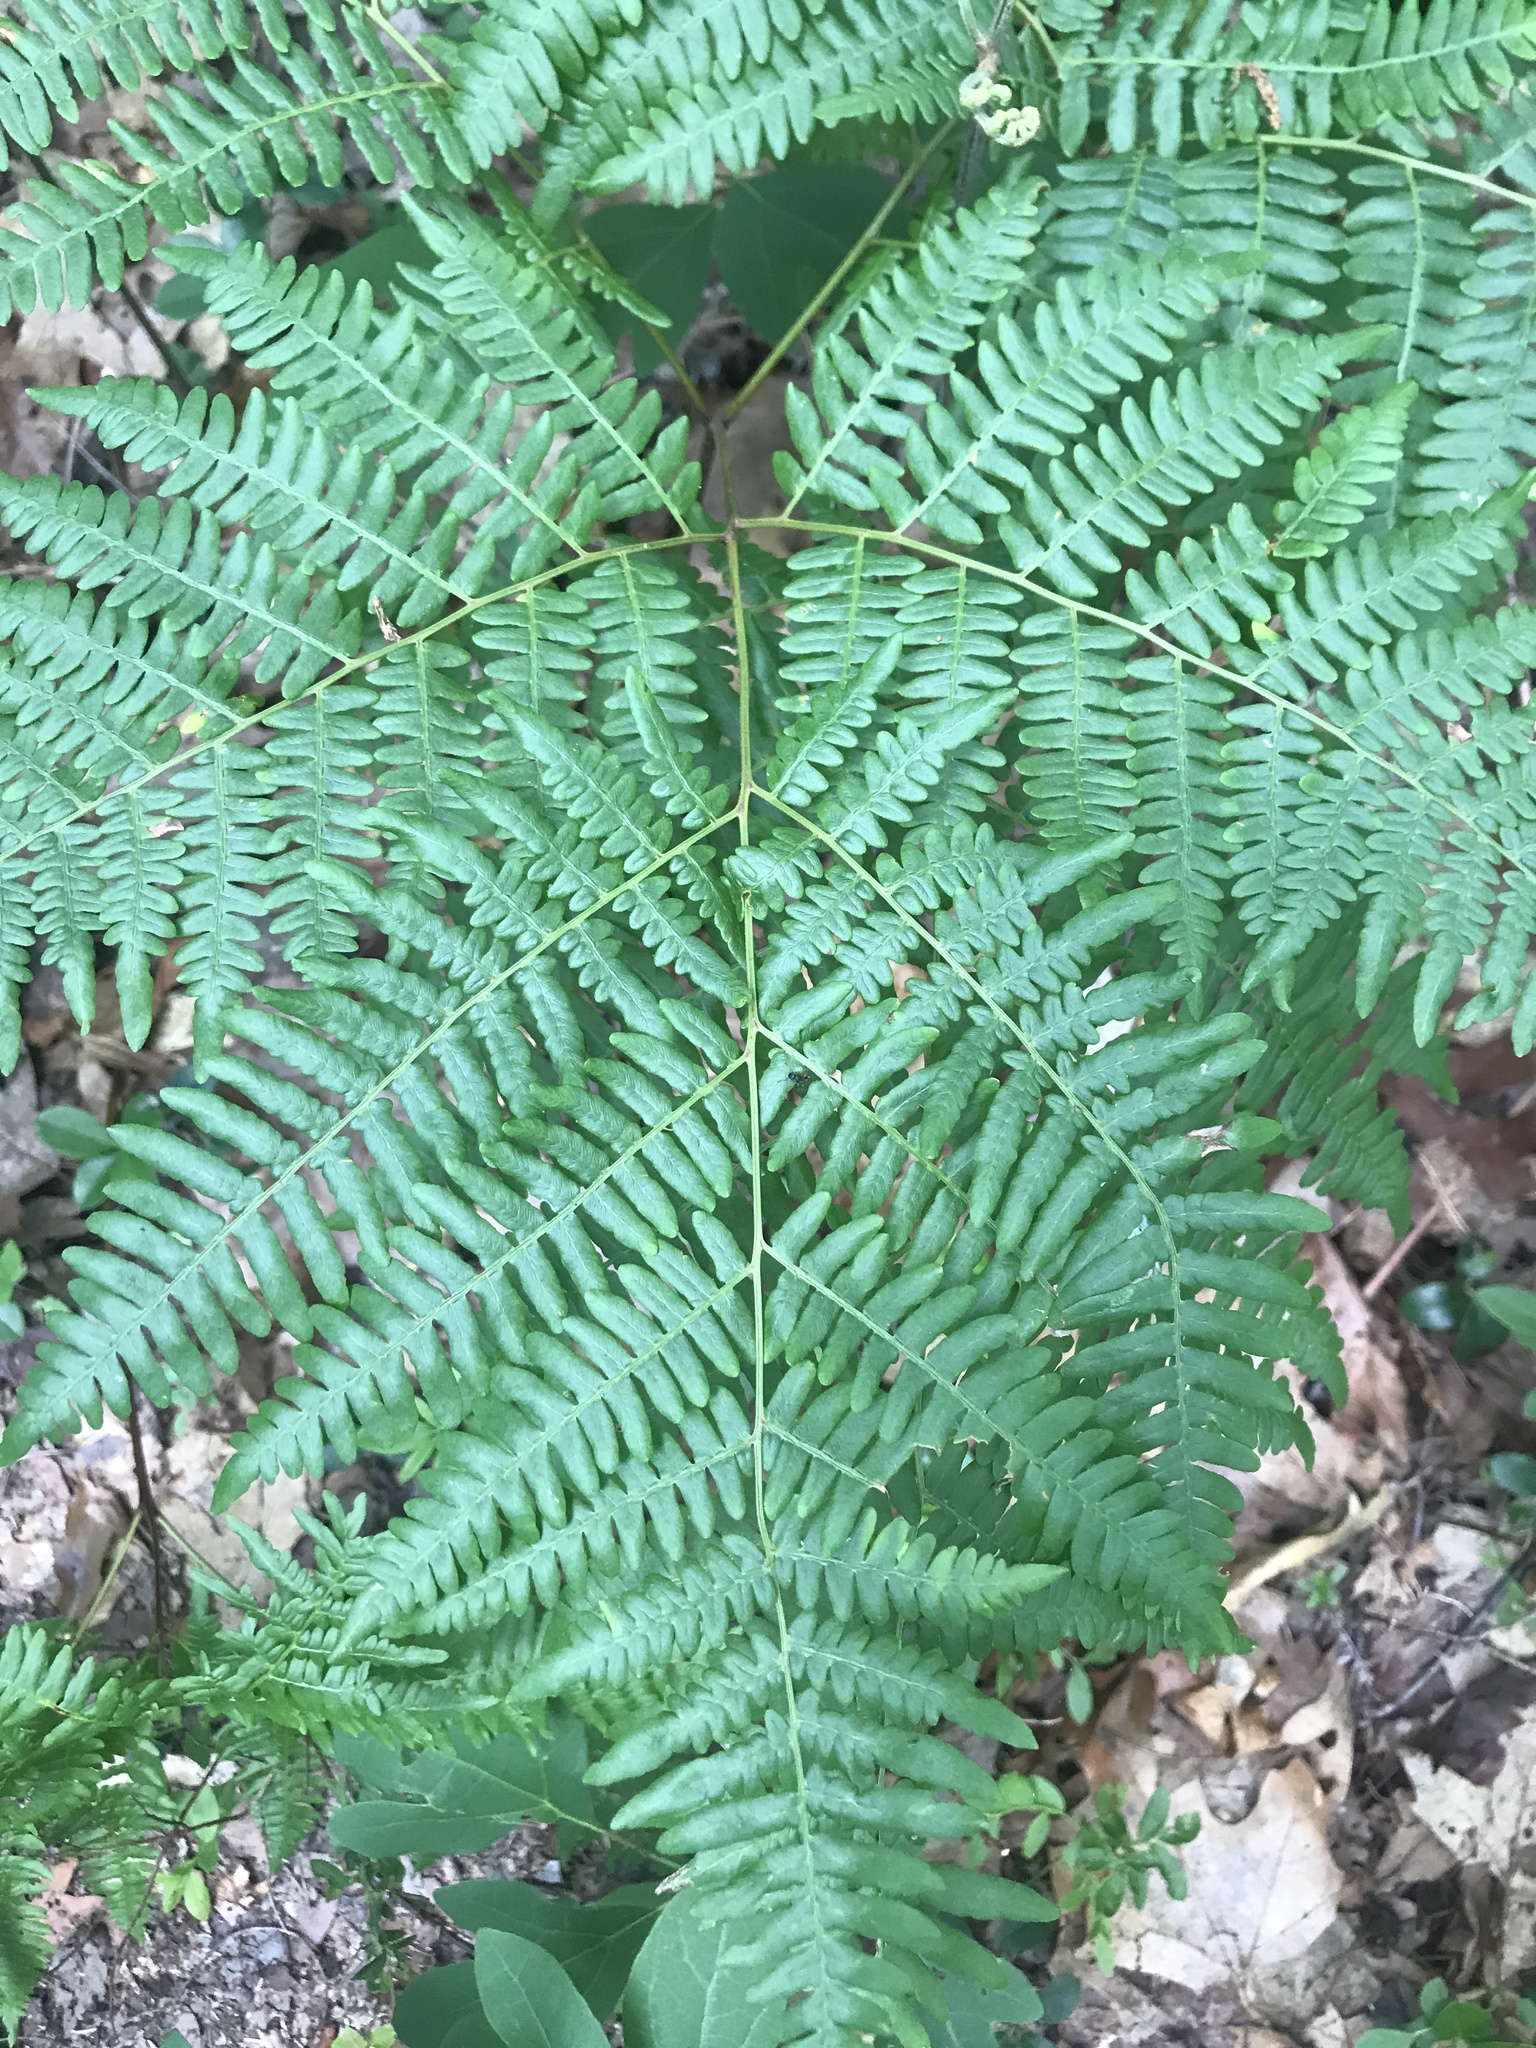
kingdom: Plantae
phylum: Tracheophyta
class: Polypodiopsida
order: Polypodiales
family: Dennstaedtiaceae
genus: Pteridium
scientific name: Pteridium aquilinum
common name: Bracken
